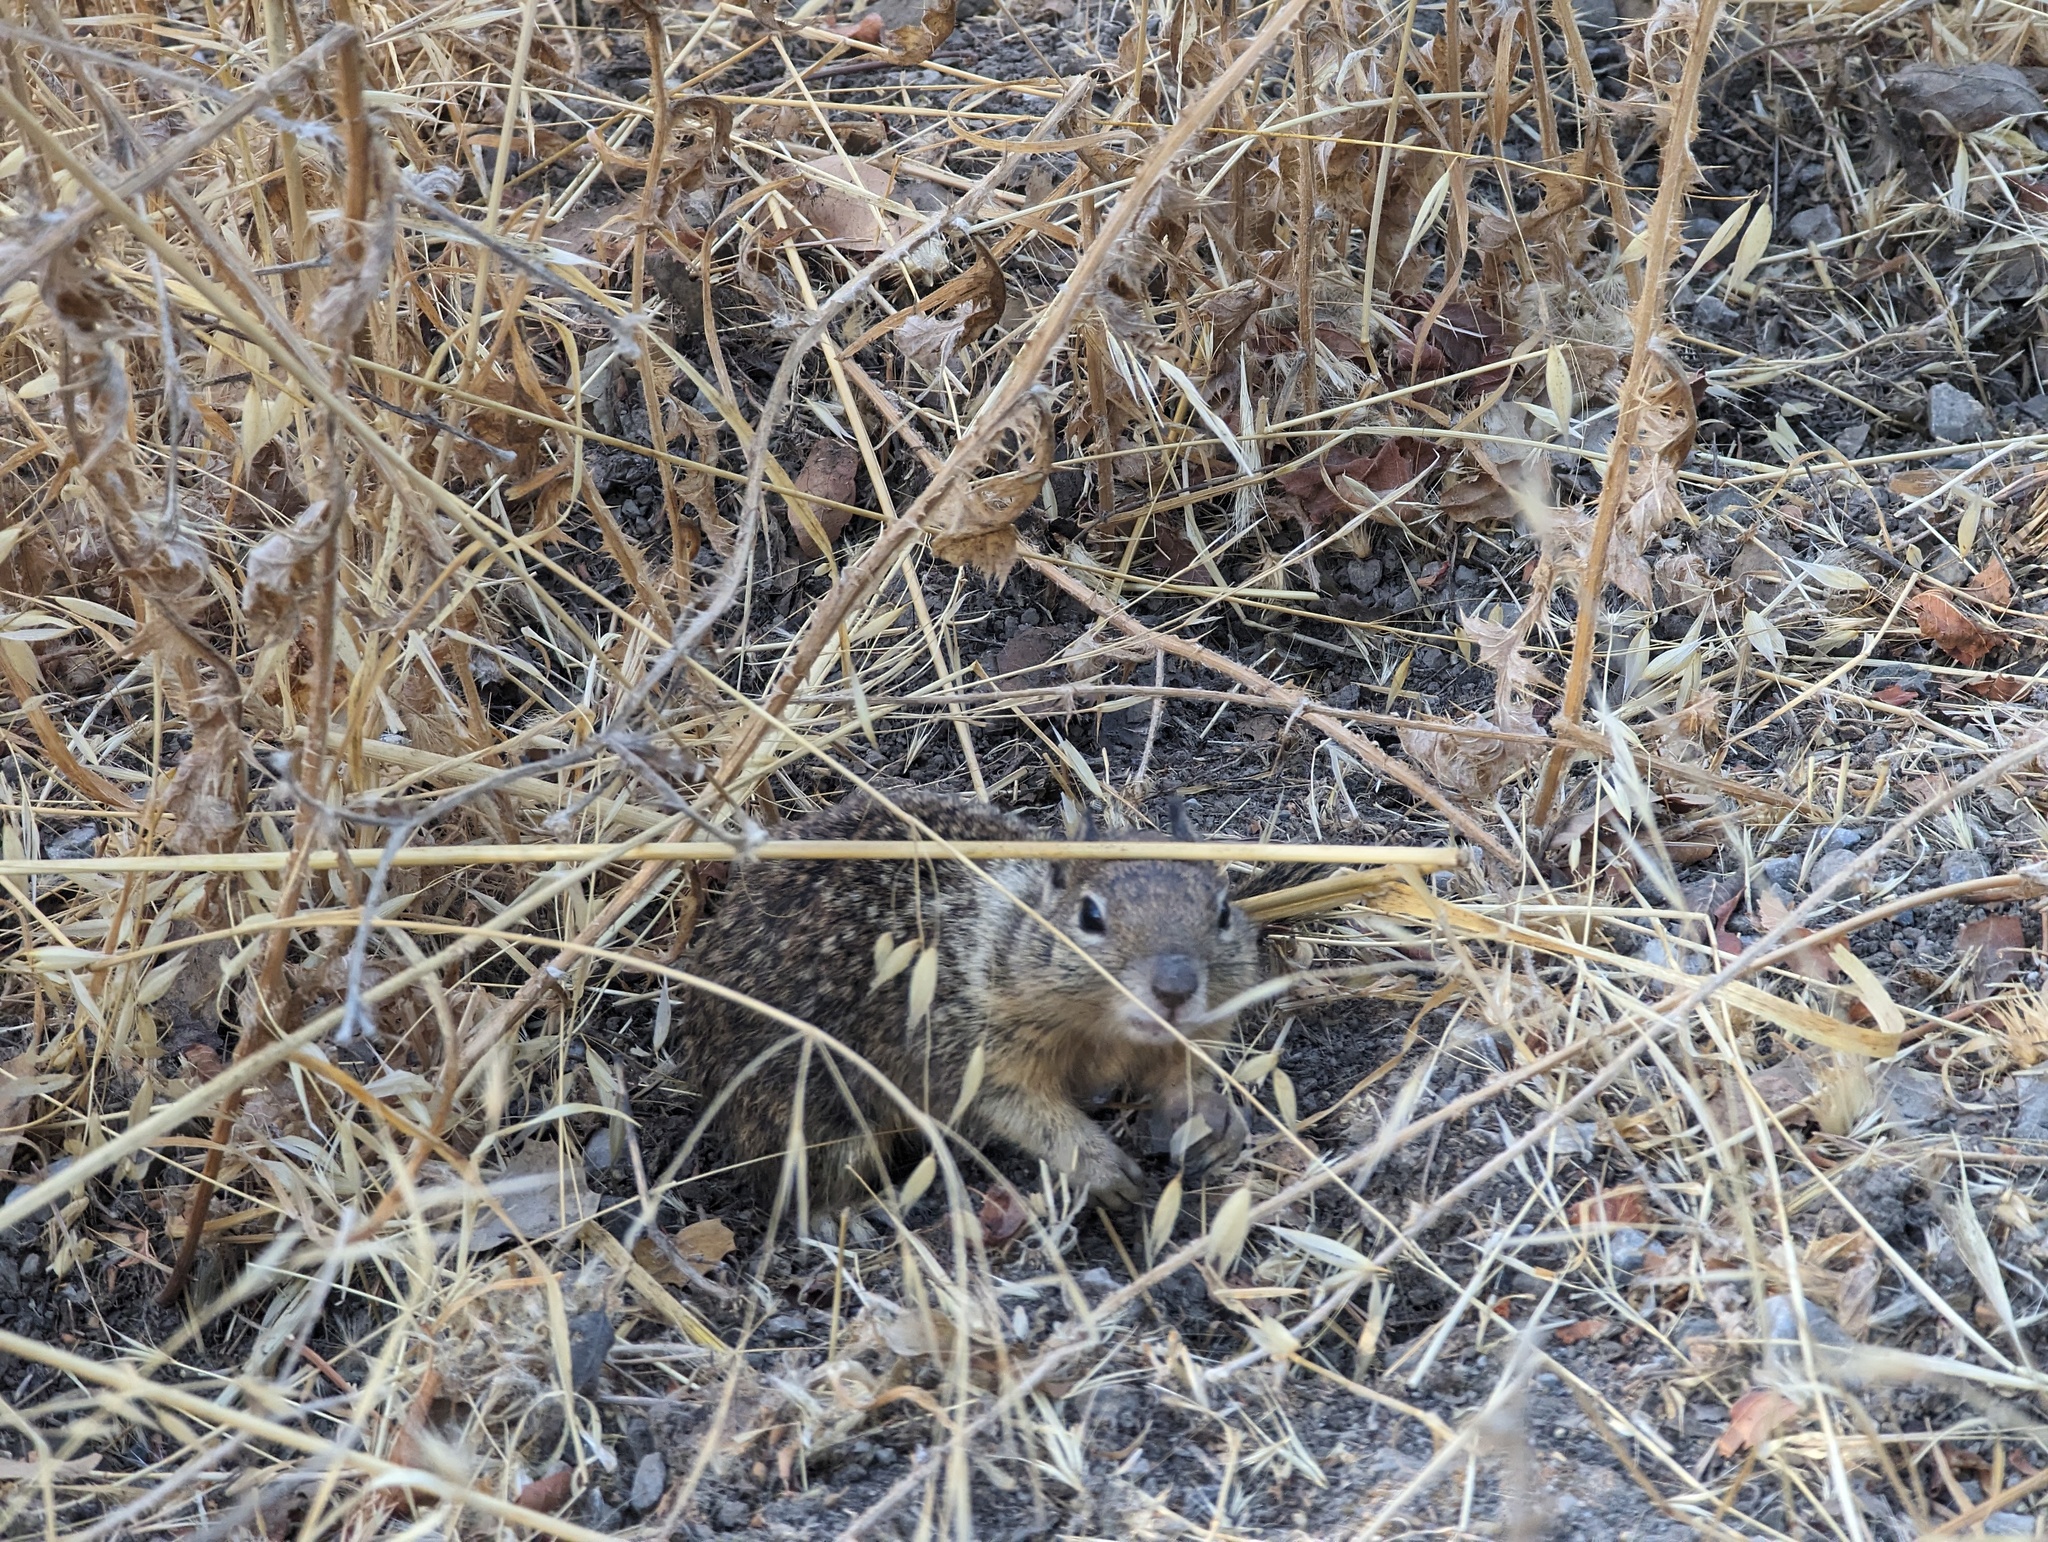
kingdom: Animalia
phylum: Chordata
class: Mammalia
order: Rodentia
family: Sciuridae
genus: Otospermophilus
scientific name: Otospermophilus beecheyi
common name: California ground squirrel
